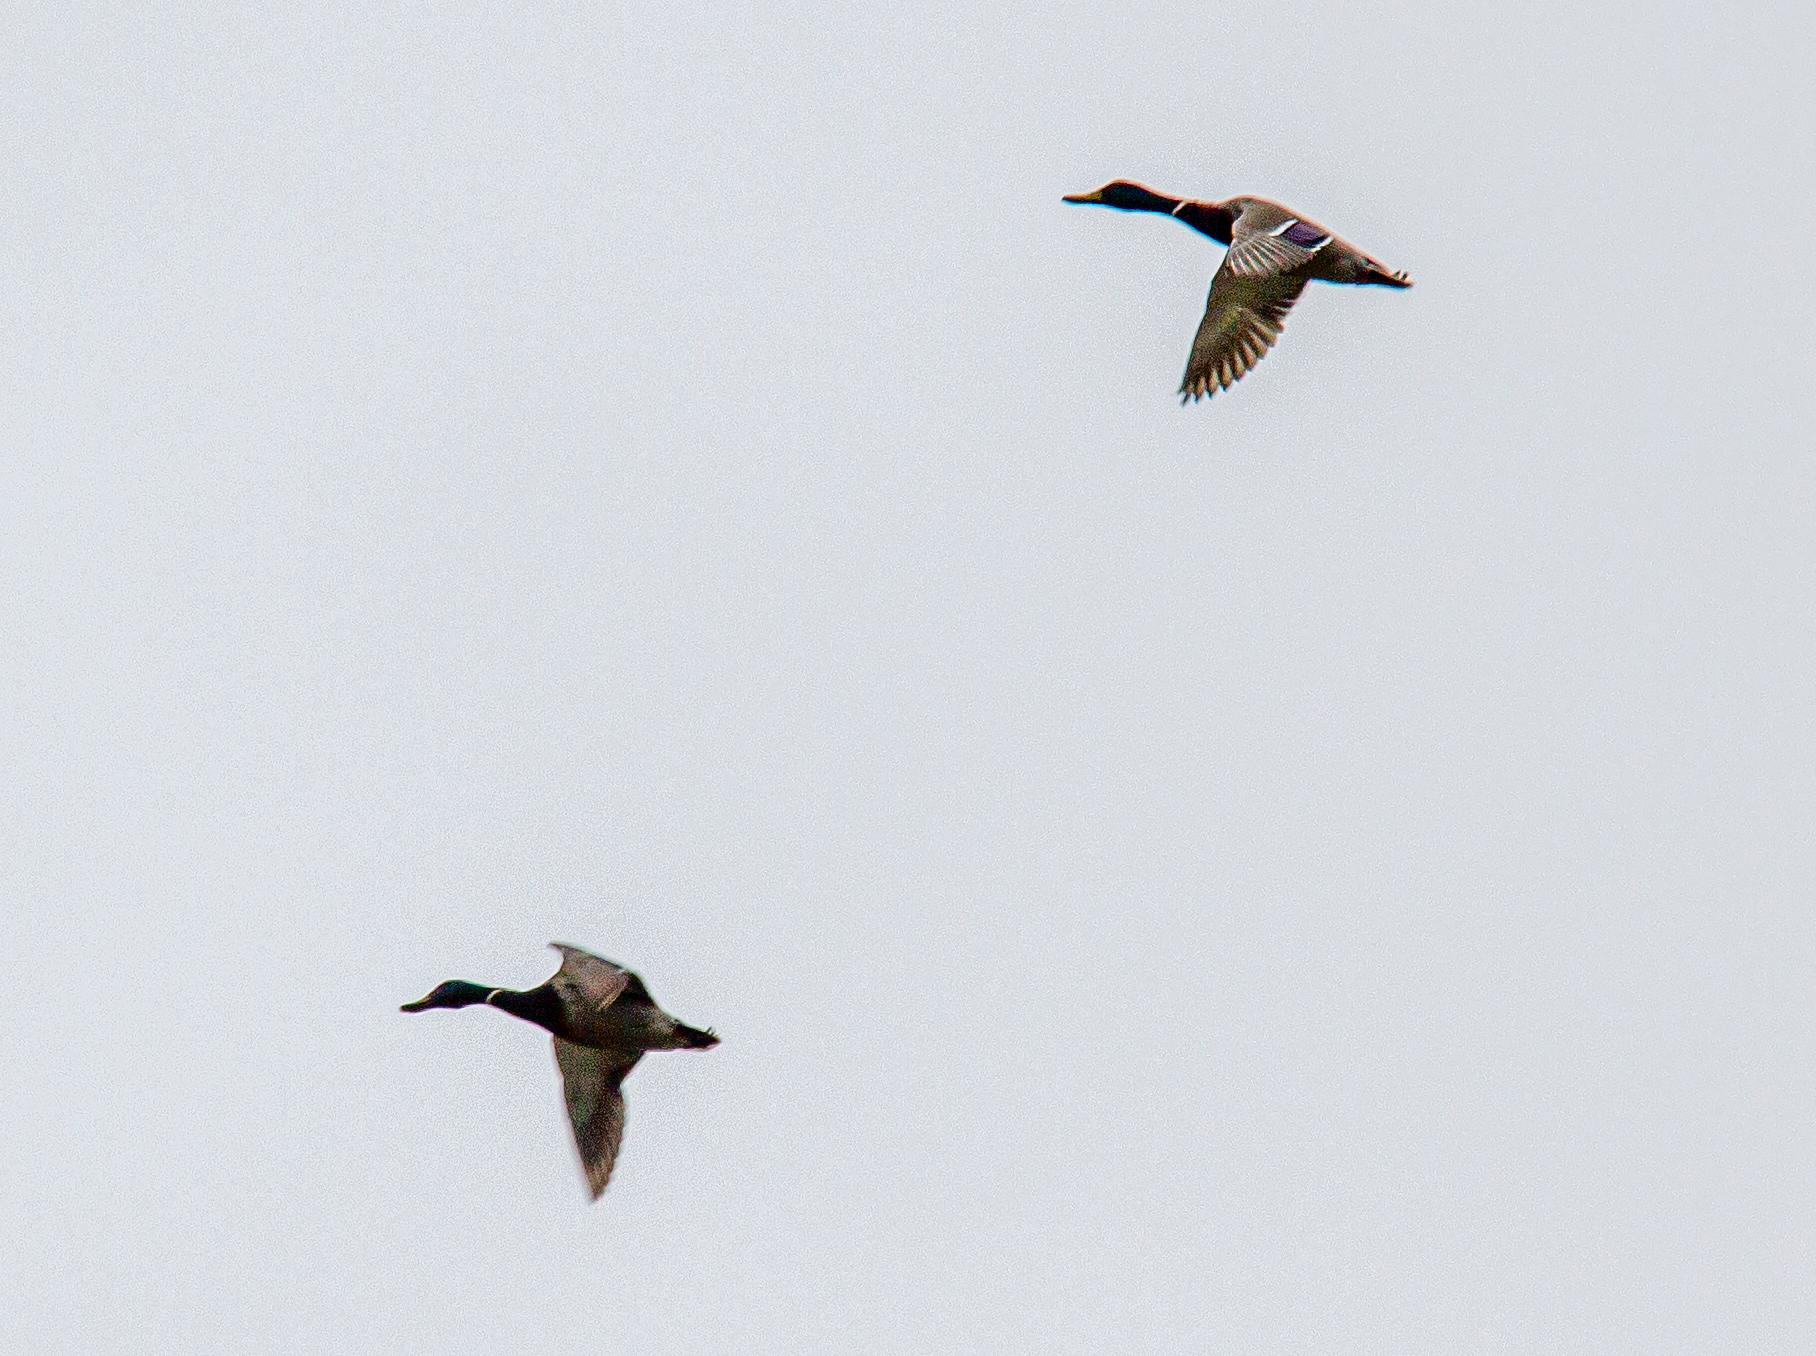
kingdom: Animalia
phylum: Chordata
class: Aves
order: Anseriformes
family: Anatidae
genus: Anas
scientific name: Anas platyrhynchos
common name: Mallard
